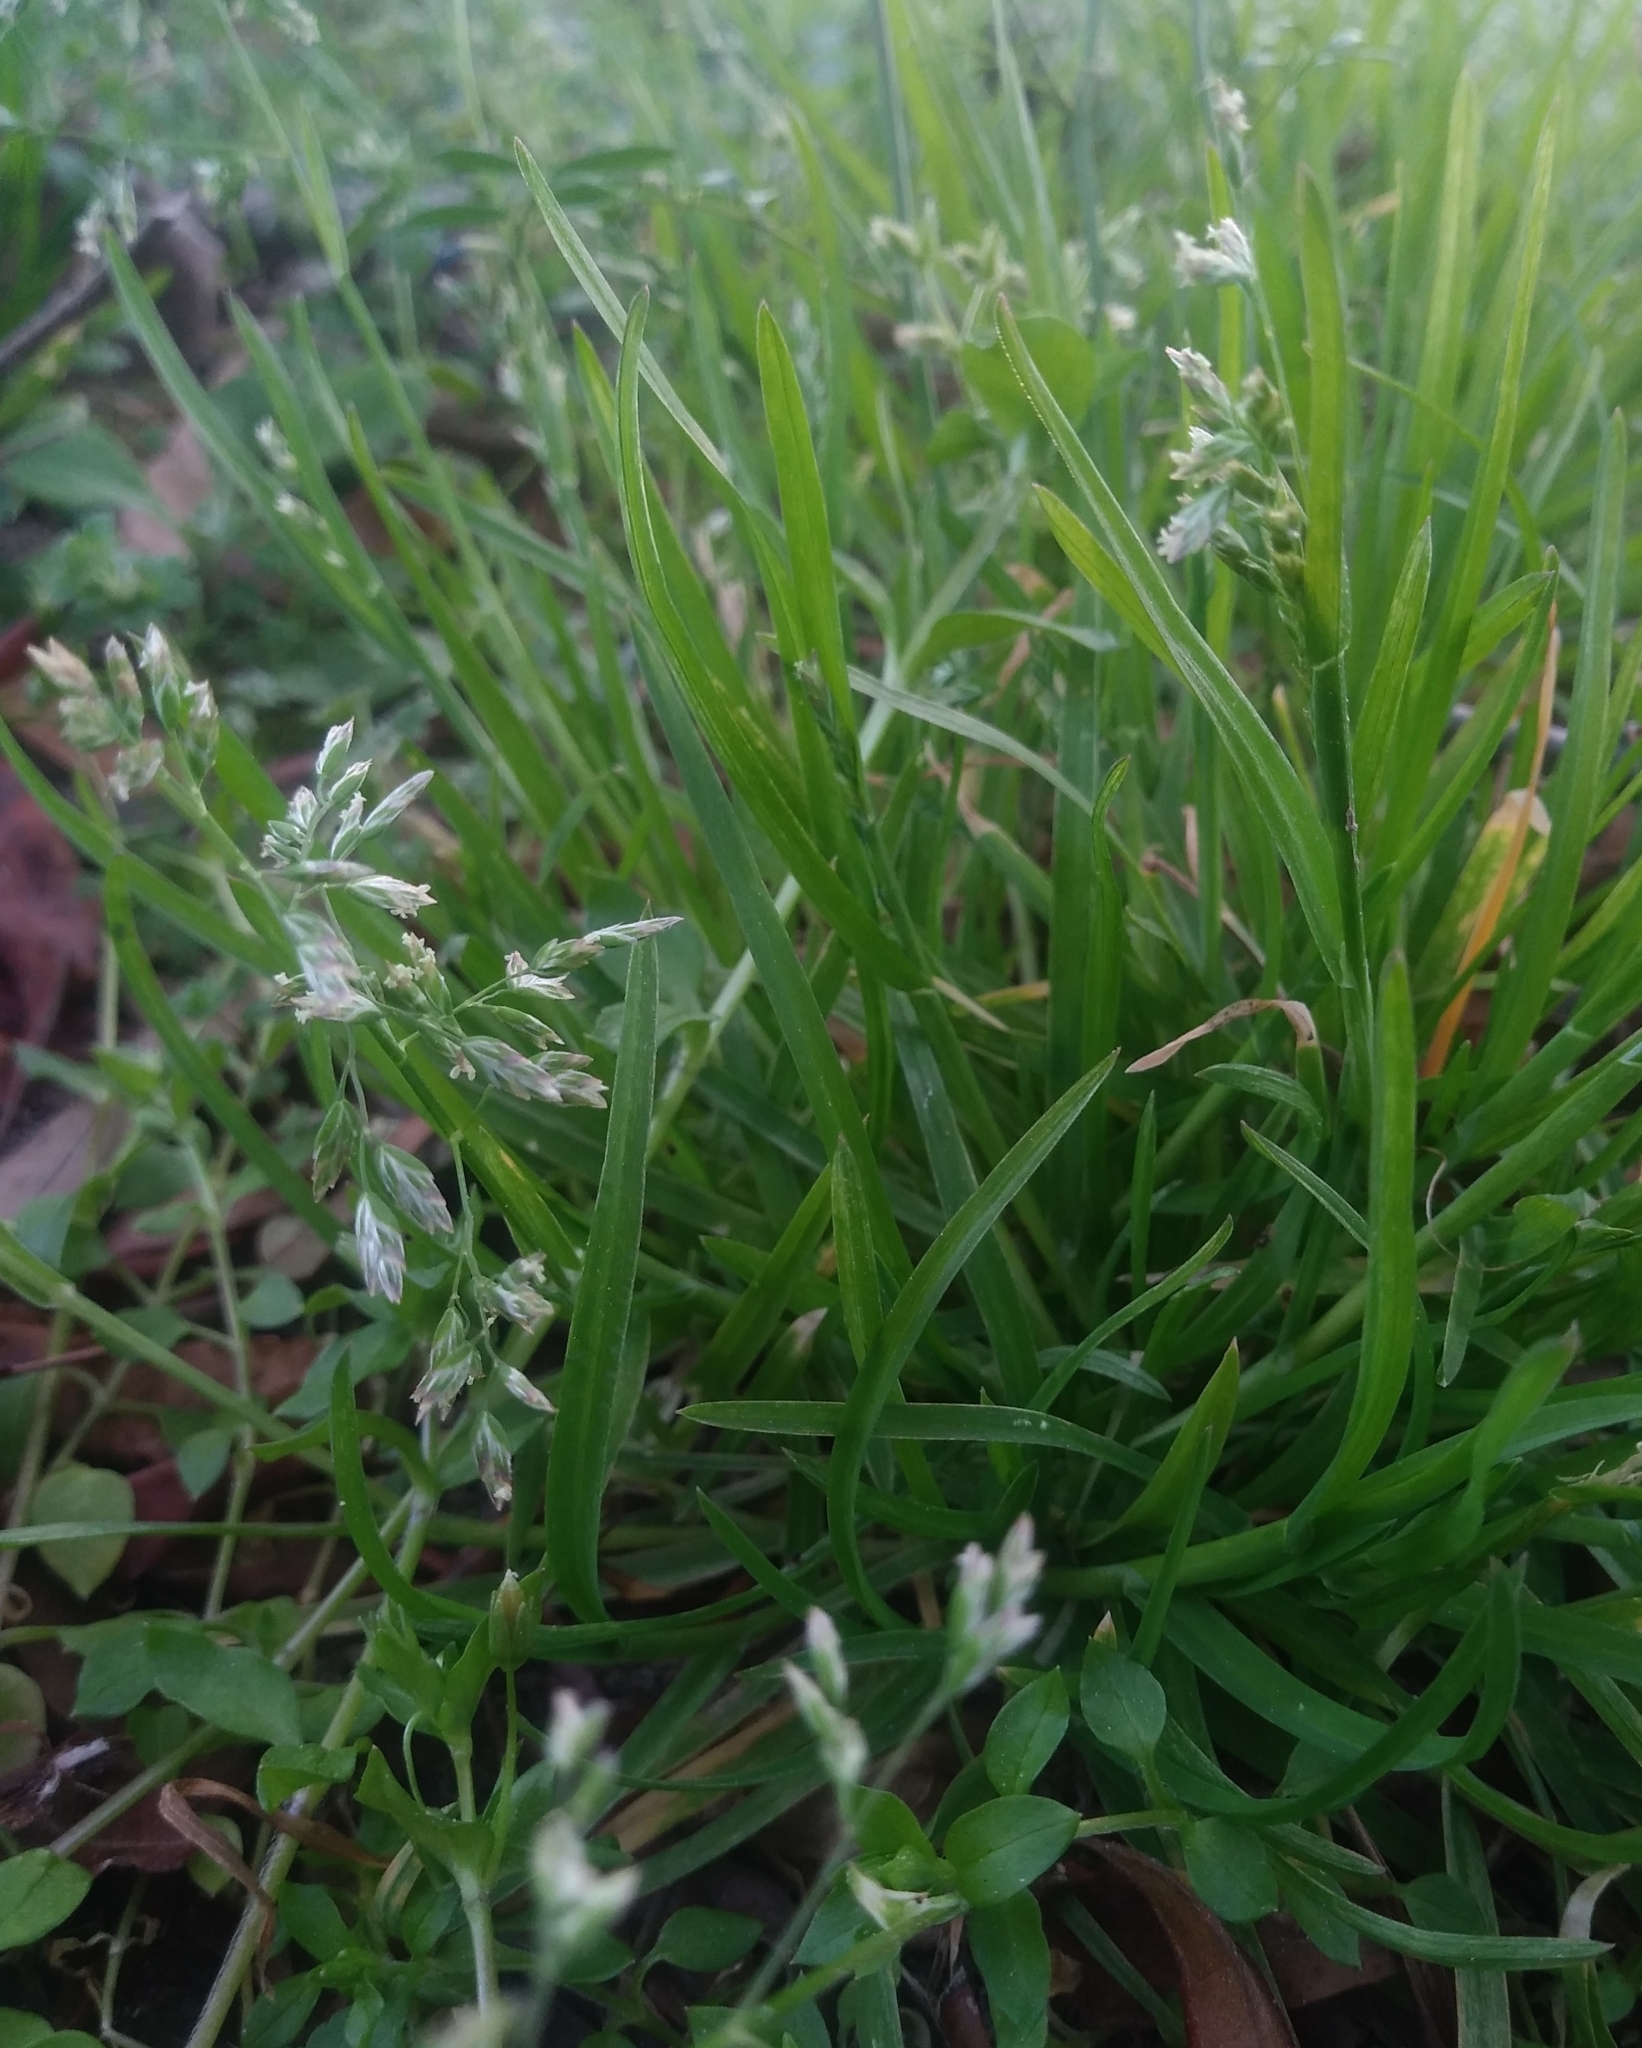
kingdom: Plantae
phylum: Tracheophyta
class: Liliopsida
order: Poales
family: Poaceae
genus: Poa
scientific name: Poa annua
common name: Annual bluegrass
